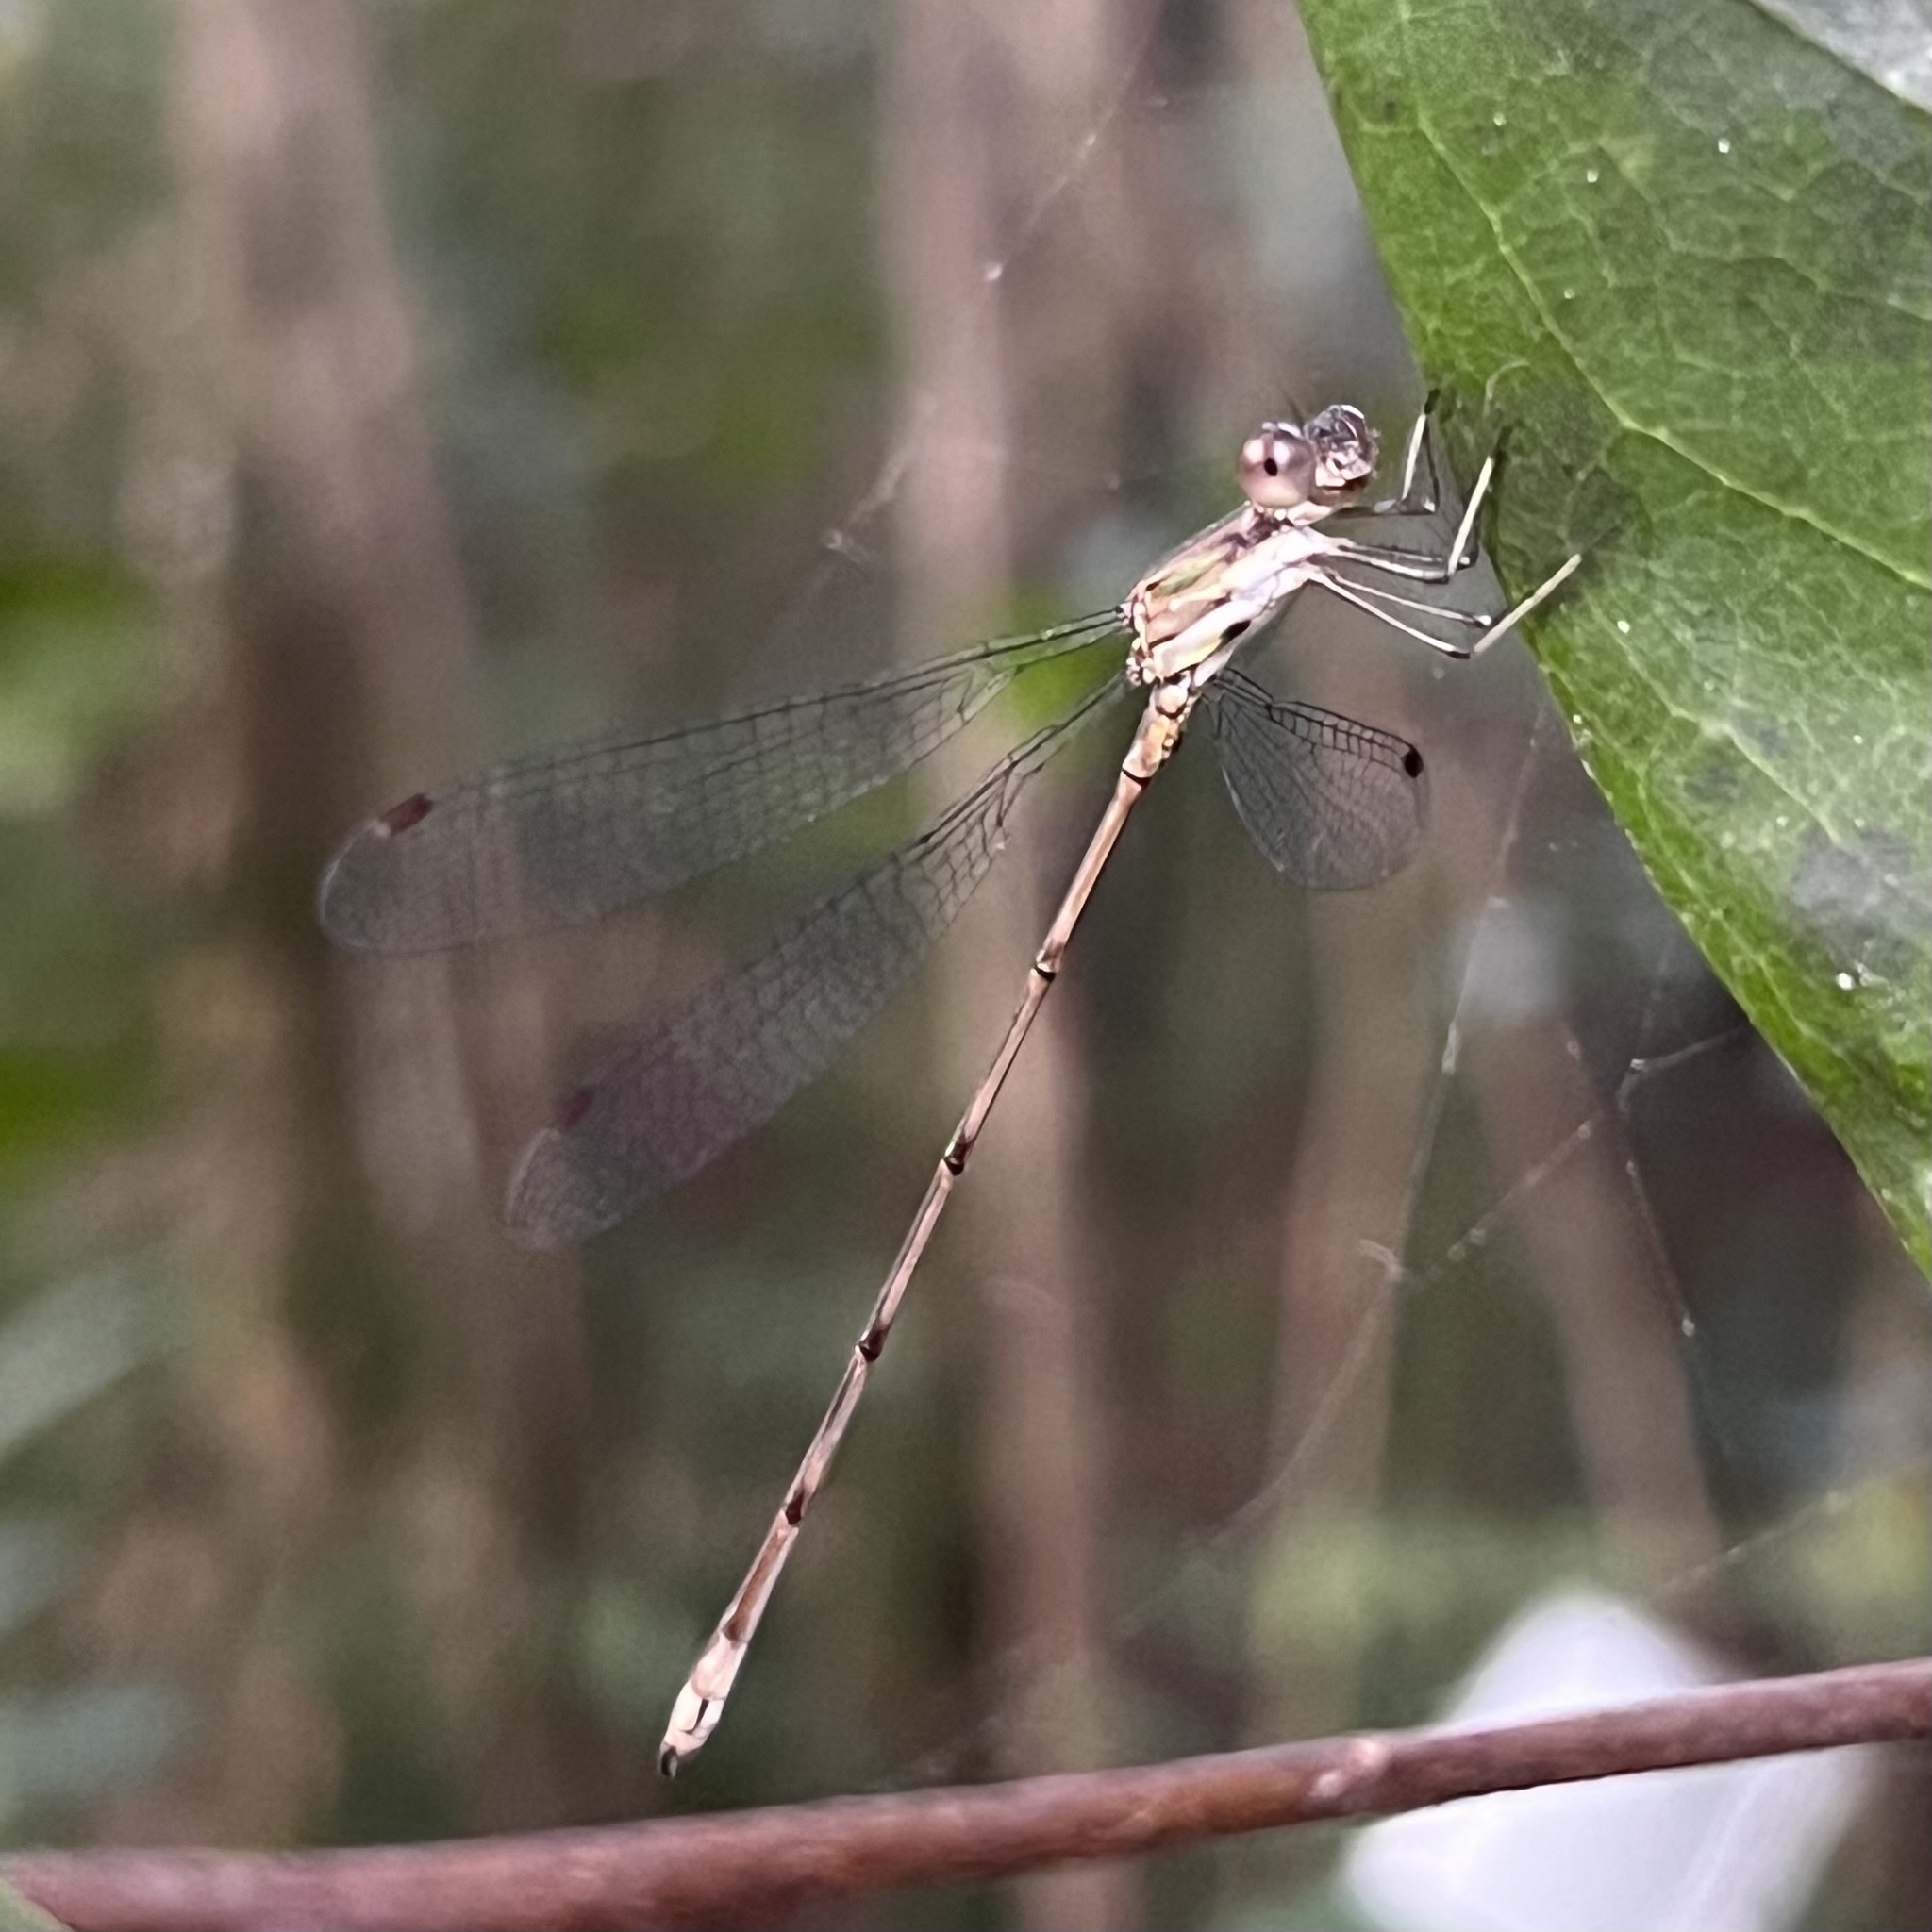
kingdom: Animalia
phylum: Arthropoda
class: Insecta
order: Odonata
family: Lestidae
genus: Lestes
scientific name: Lestes tenuatus
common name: Blue-striped spreadwing
